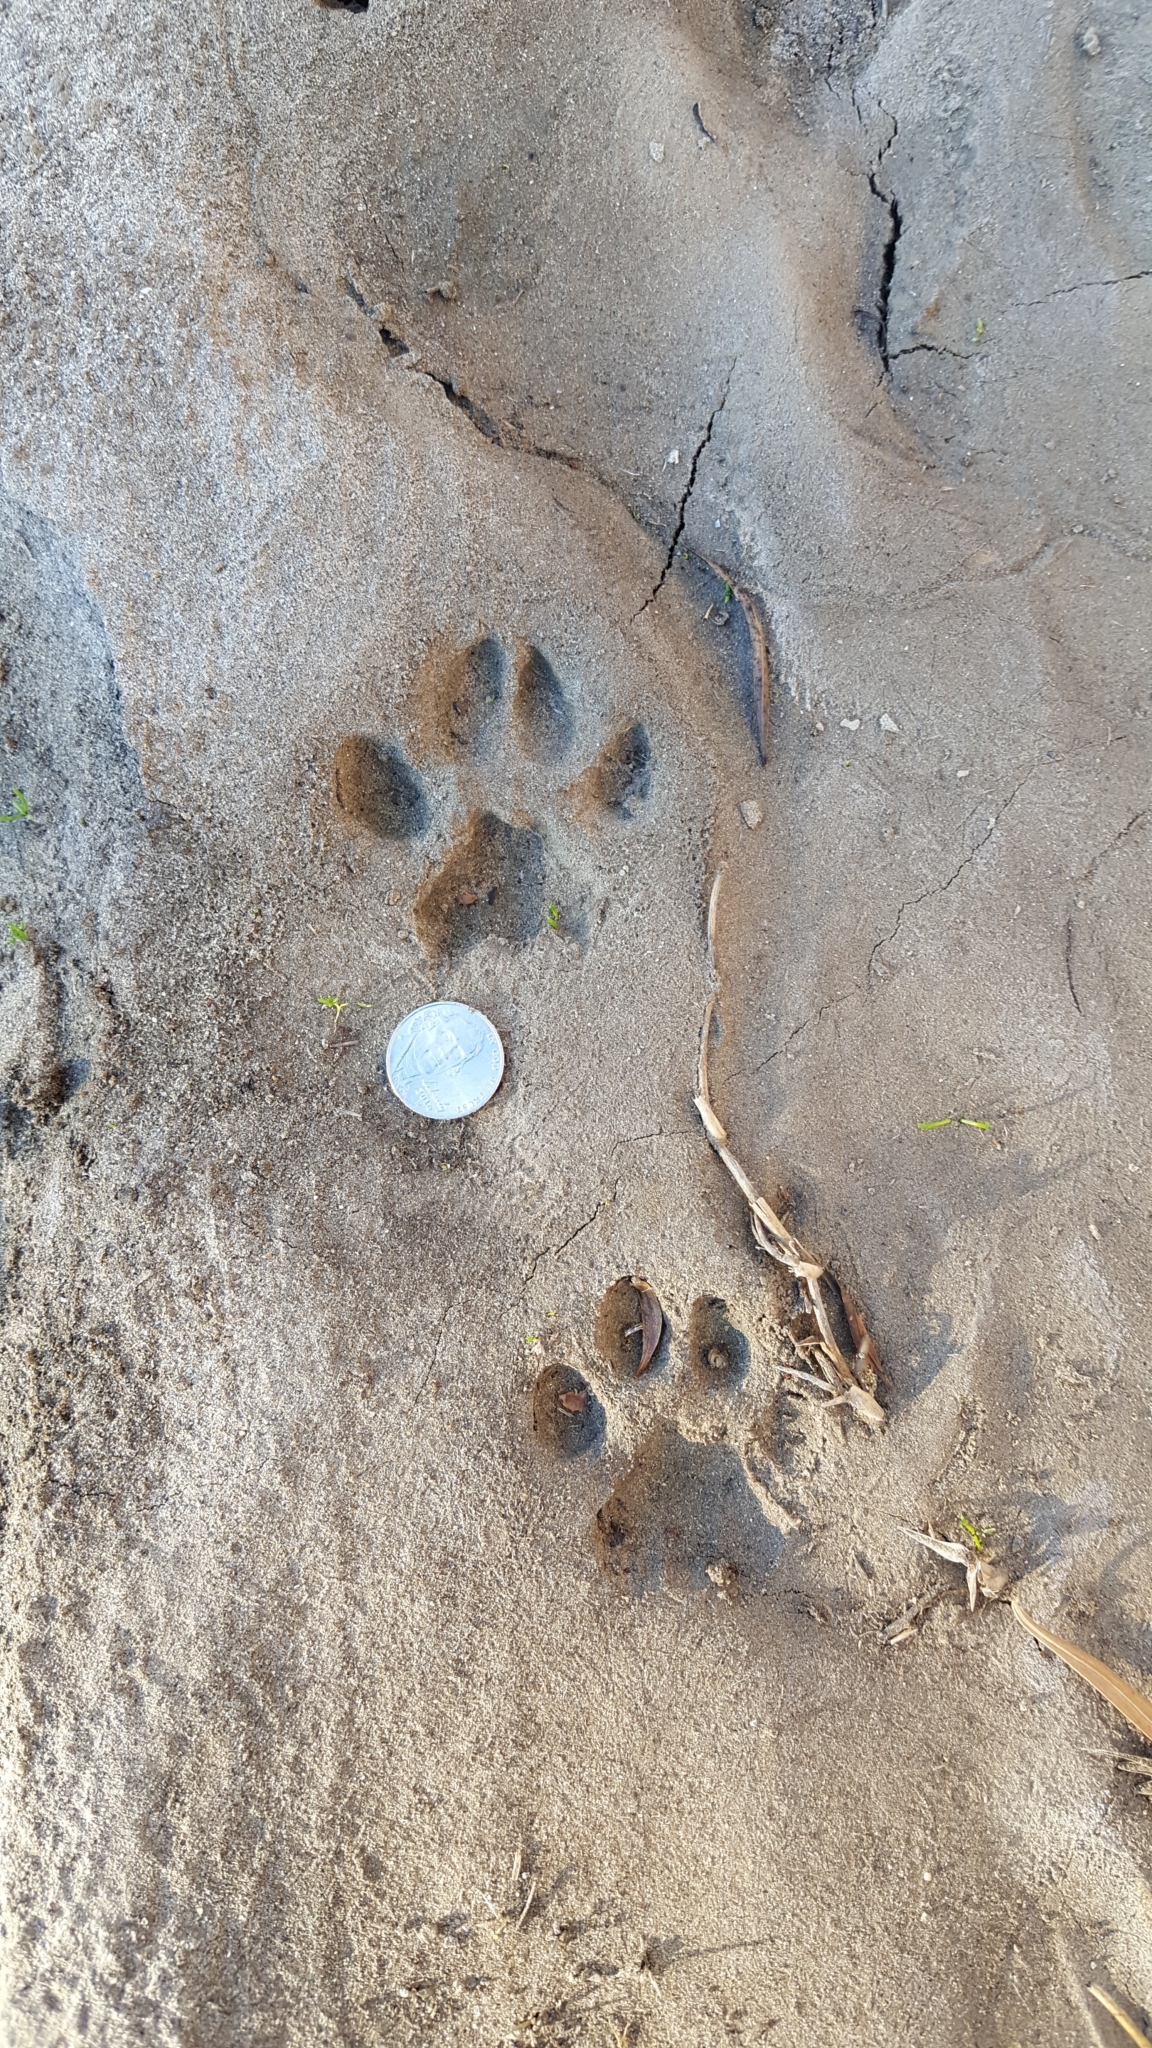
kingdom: Animalia
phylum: Chordata
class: Mammalia
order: Carnivora
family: Felidae
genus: Lynx
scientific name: Lynx rufus
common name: Bobcat
